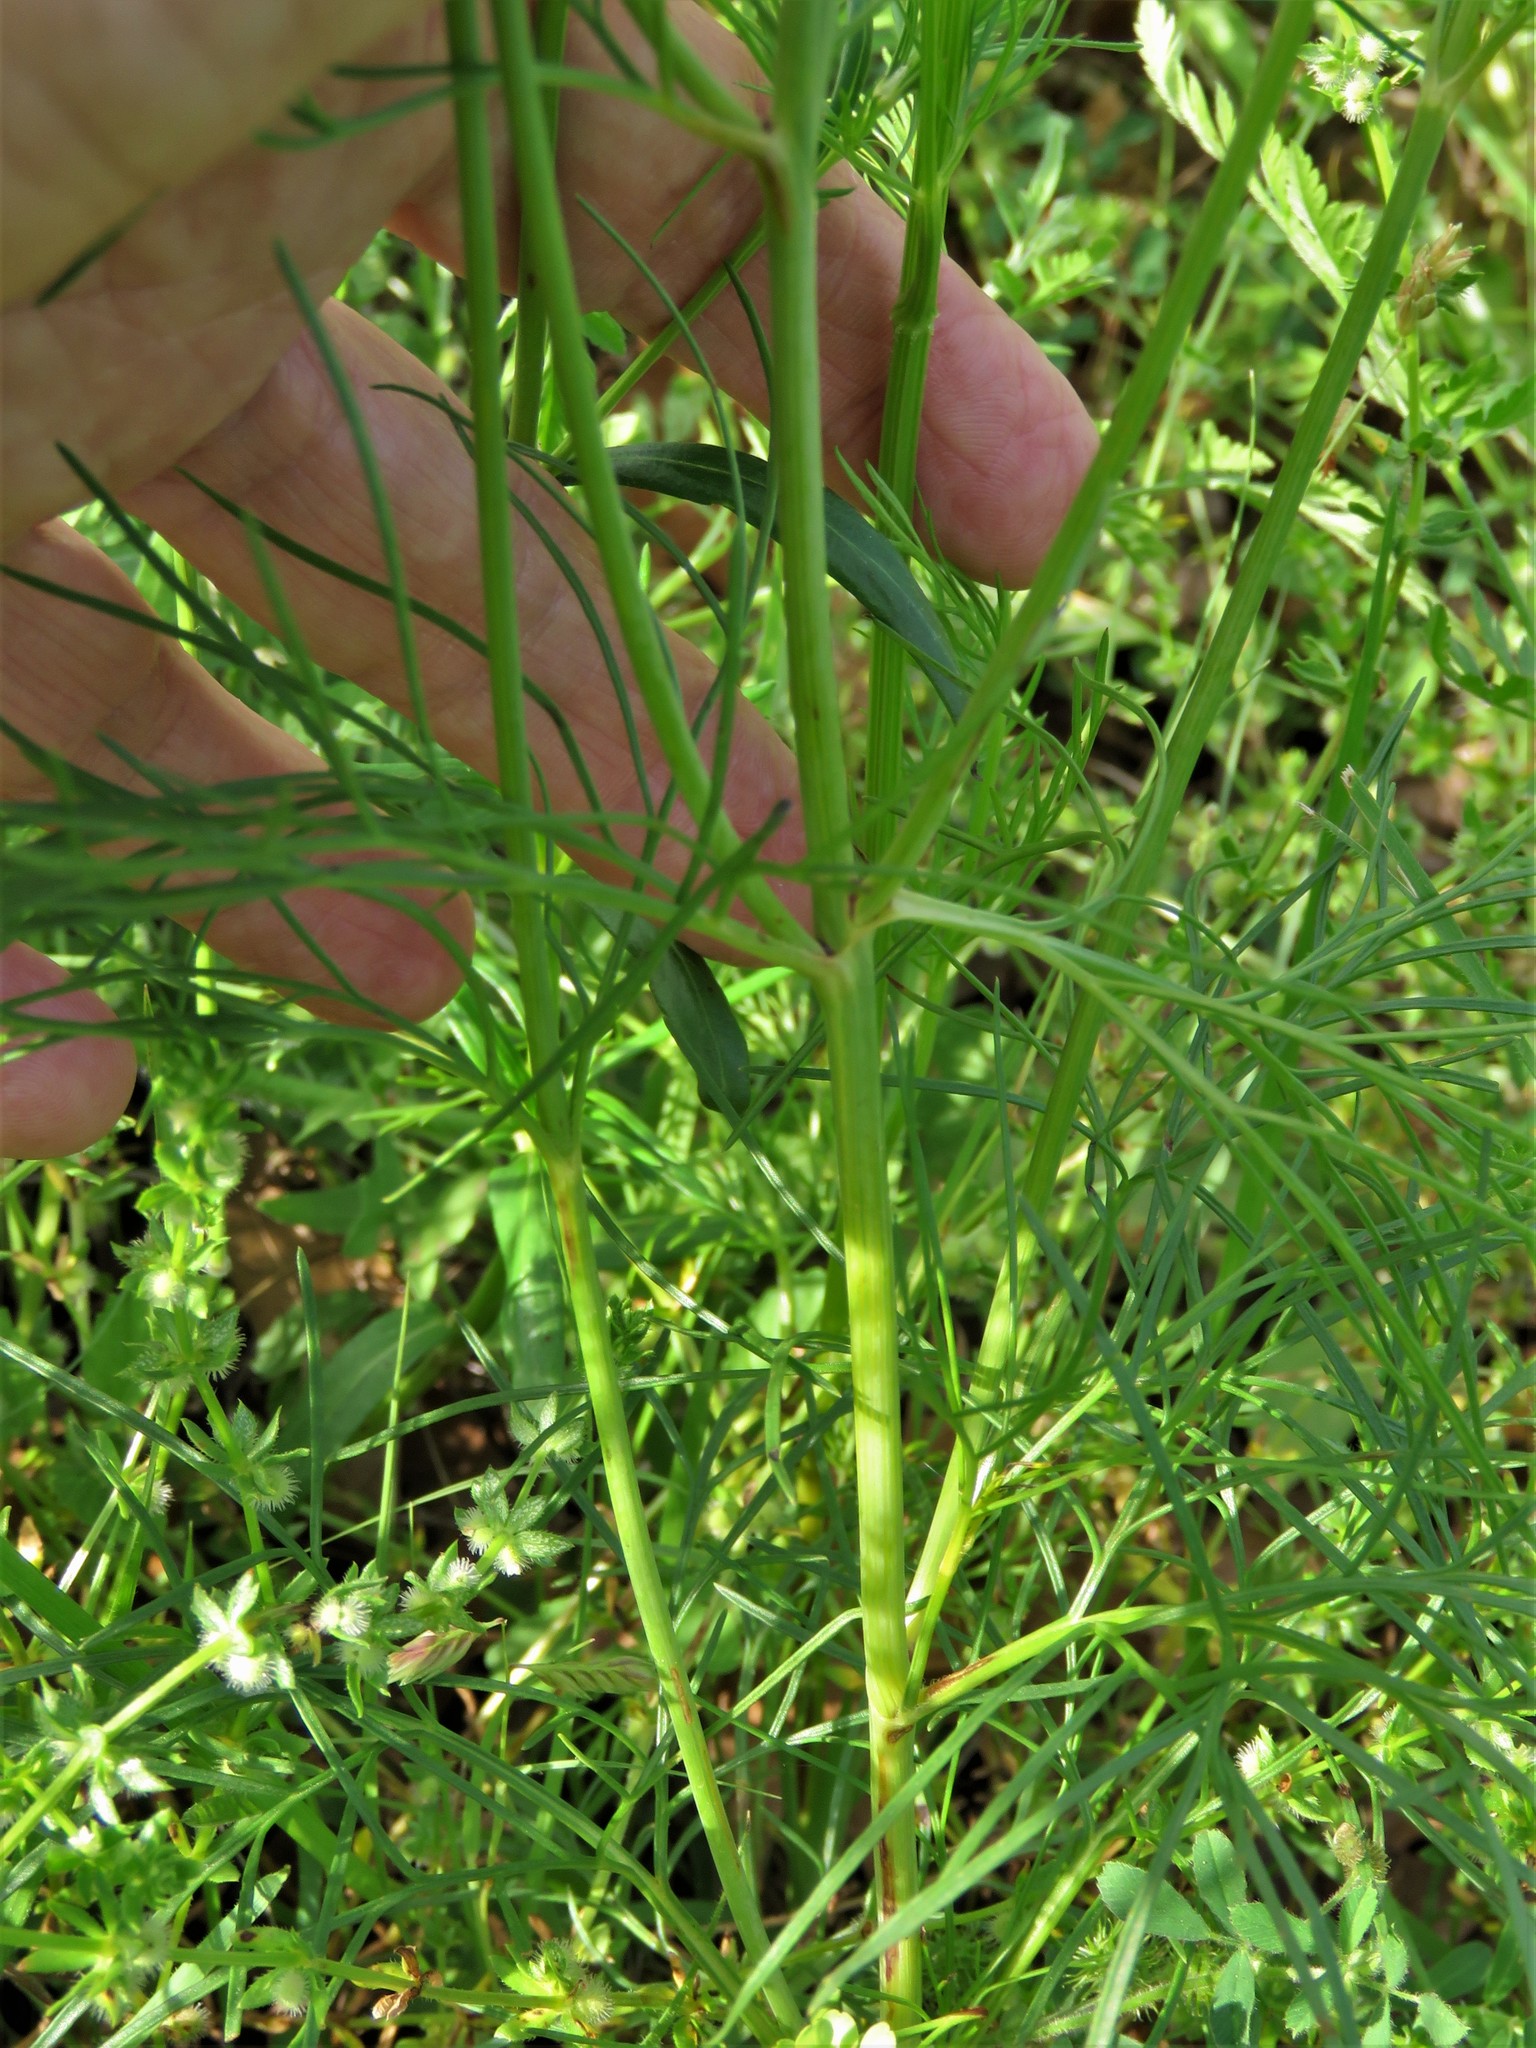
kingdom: Plantae
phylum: Tracheophyta
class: Magnoliopsida
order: Asterales
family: Asteraceae
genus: Thelesperma
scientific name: Thelesperma filifolium
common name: Stiff greenthread
